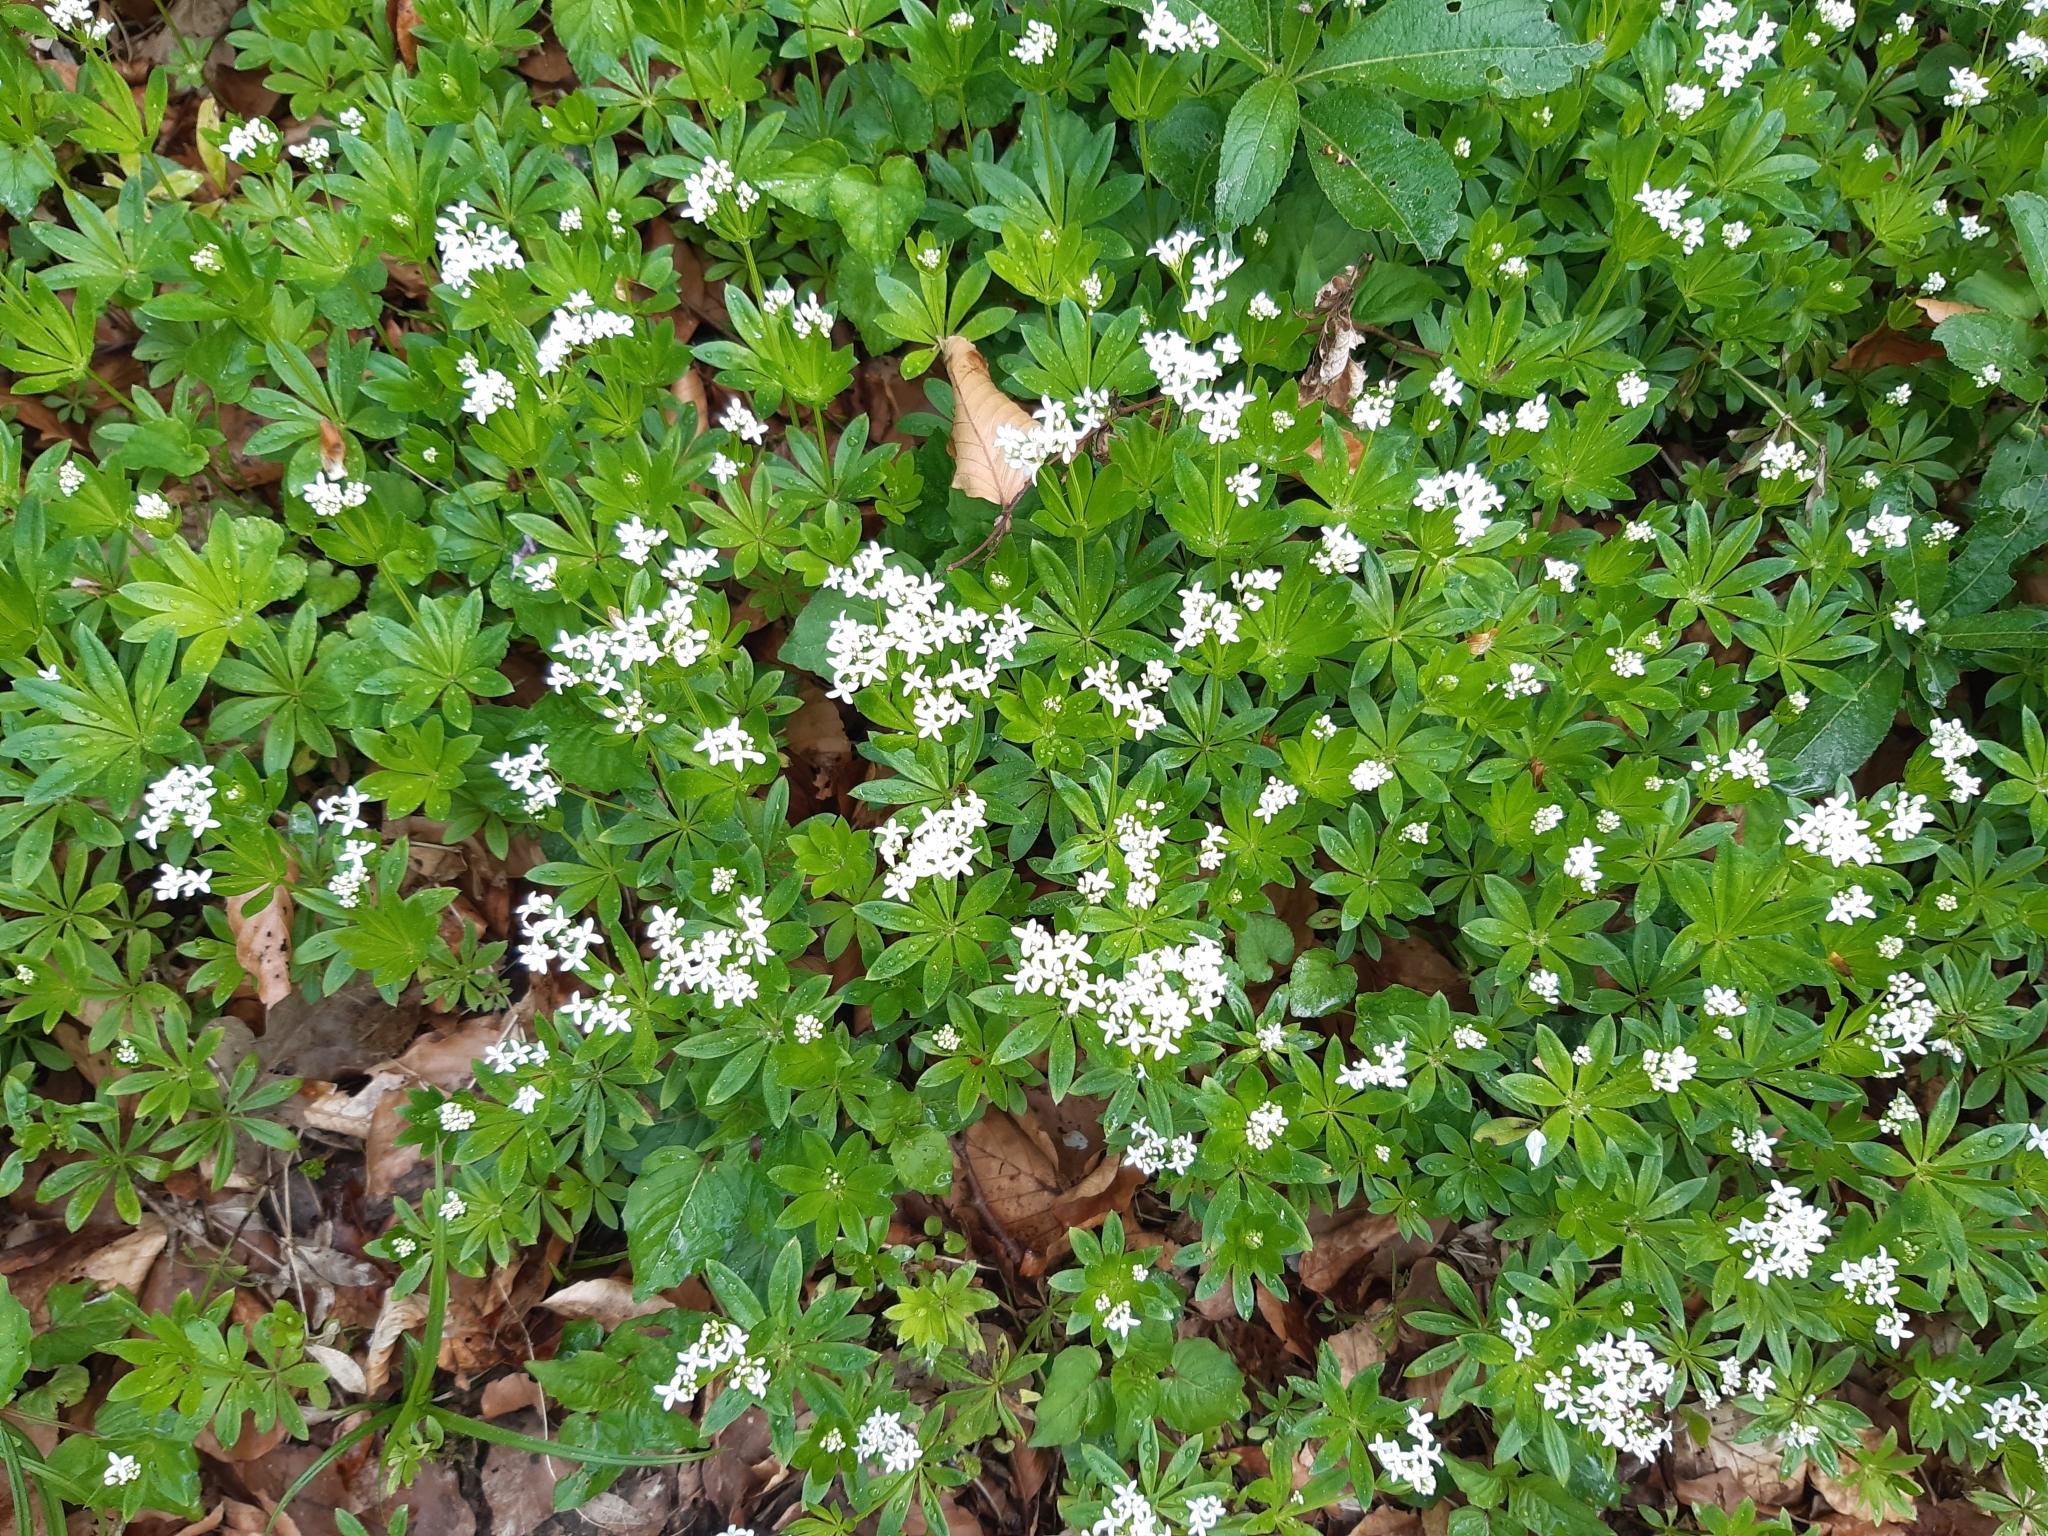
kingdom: Plantae
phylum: Tracheophyta
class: Magnoliopsida
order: Gentianales
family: Rubiaceae
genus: Galium
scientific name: Galium odoratum
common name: Sweet woodruff
